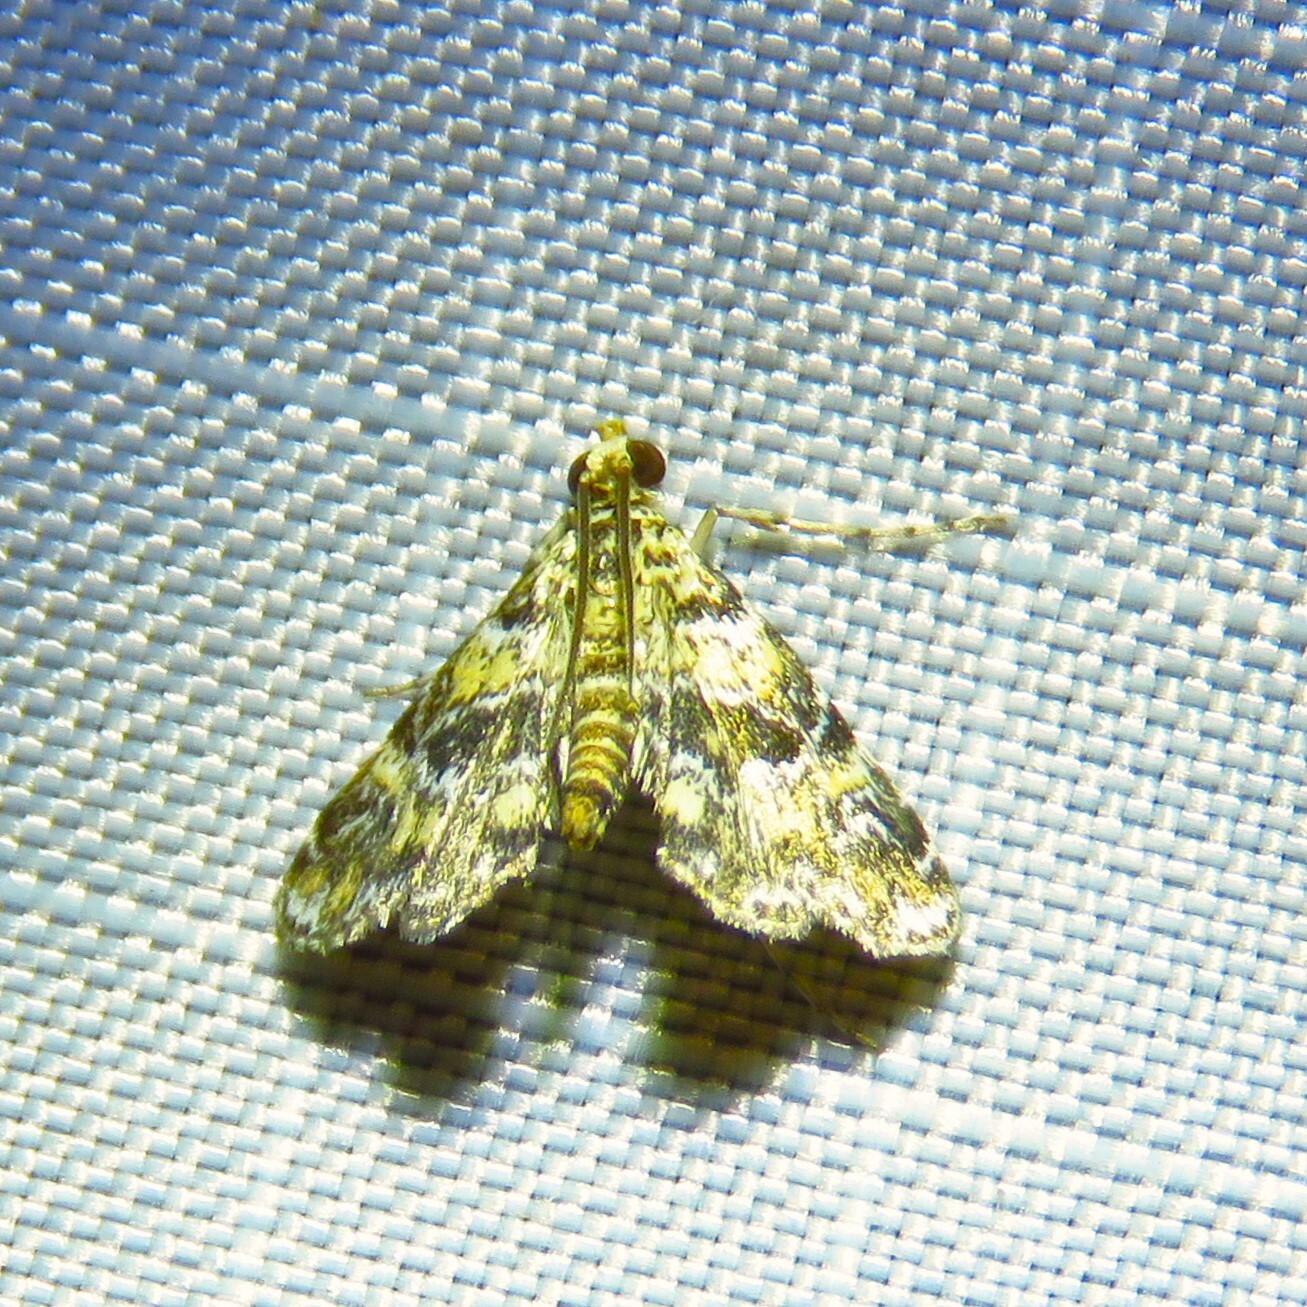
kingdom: Animalia
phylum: Arthropoda
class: Insecta
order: Lepidoptera
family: Crambidae
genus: Elophila
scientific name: Elophila obliteralis
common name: Waterlily leafcutter moth
